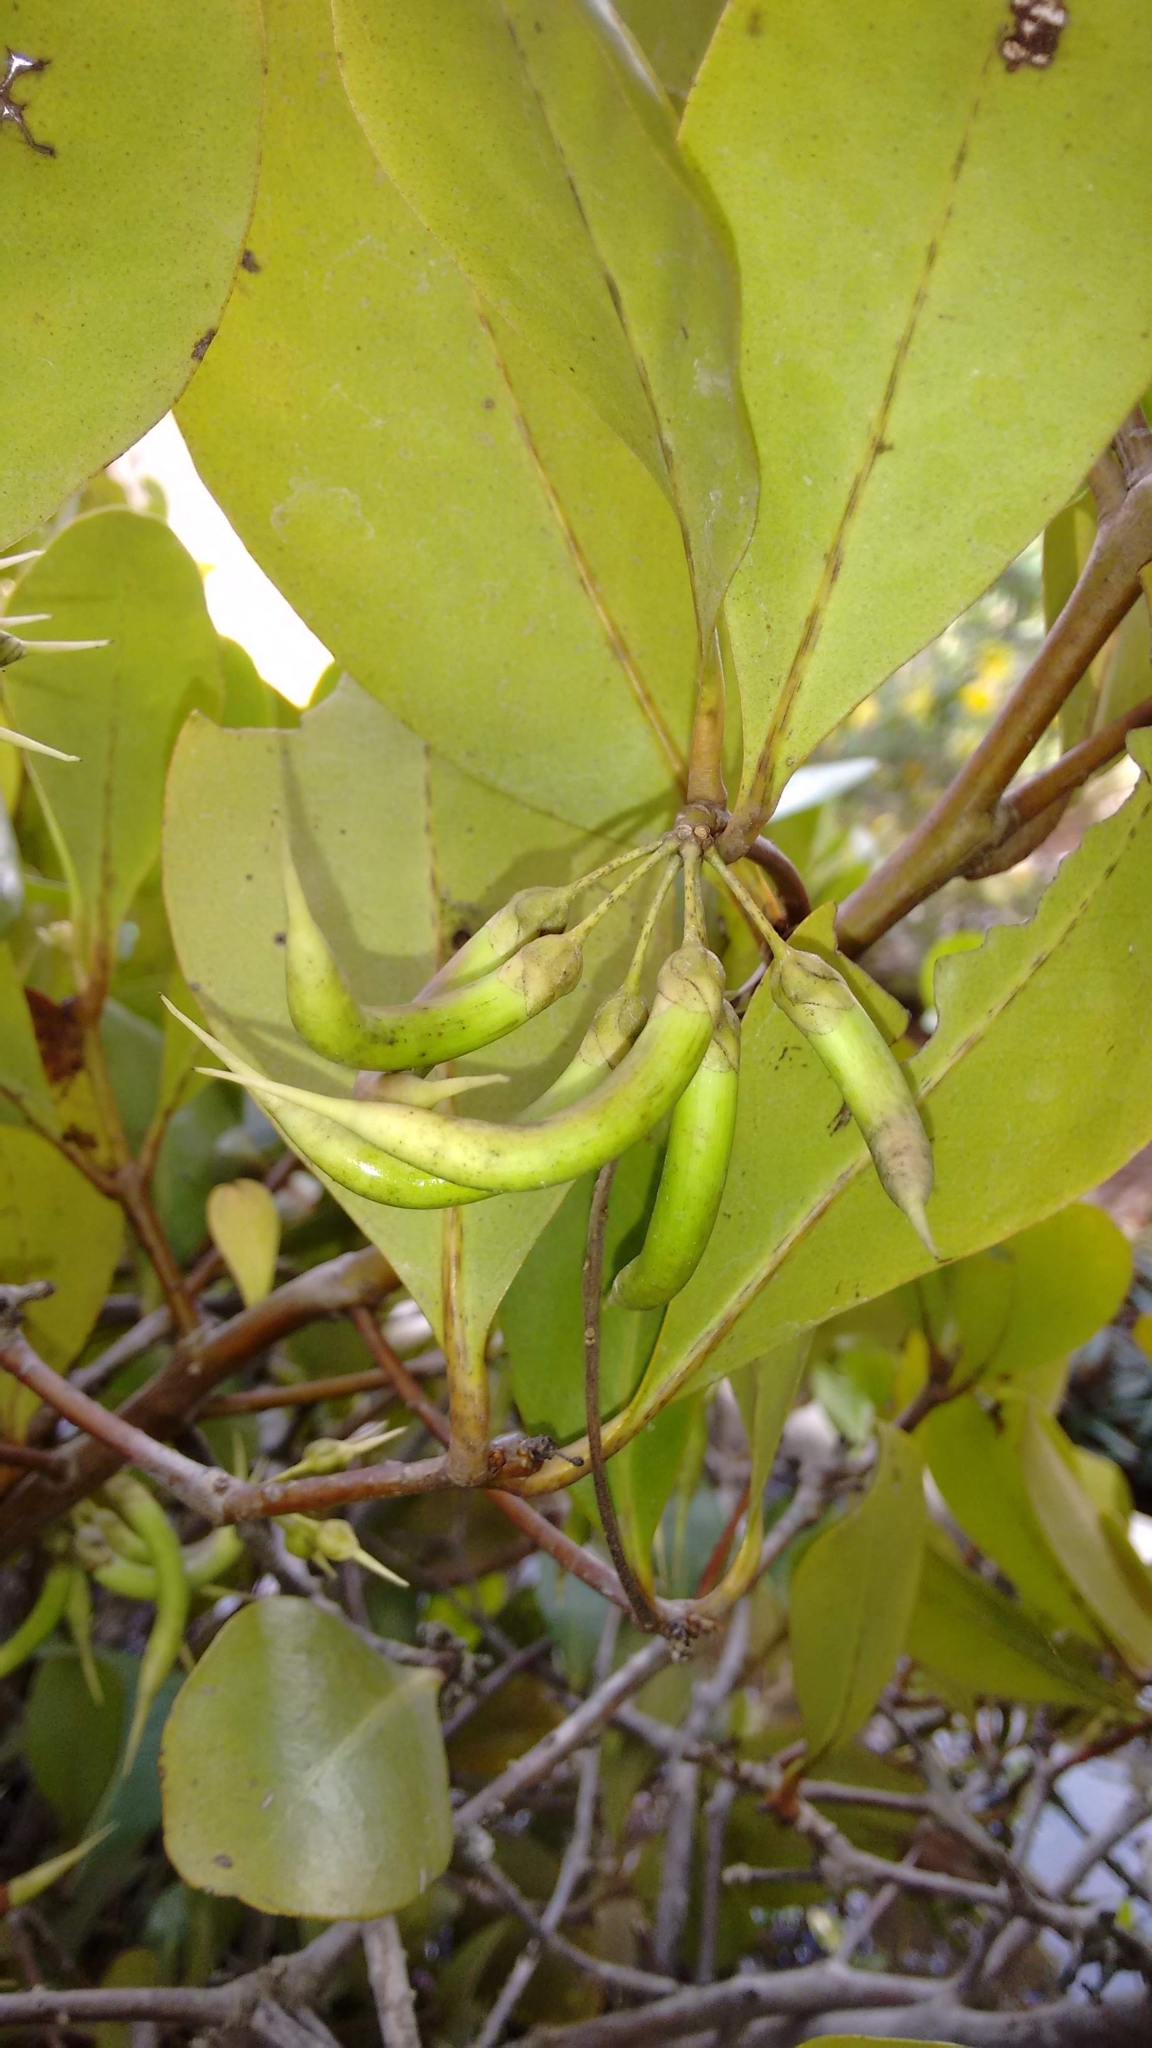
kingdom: Plantae
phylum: Tracheophyta
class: Magnoliopsida
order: Ericales
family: Primulaceae
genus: Aegiceras
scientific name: Aegiceras corniculatum
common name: River mangrove
